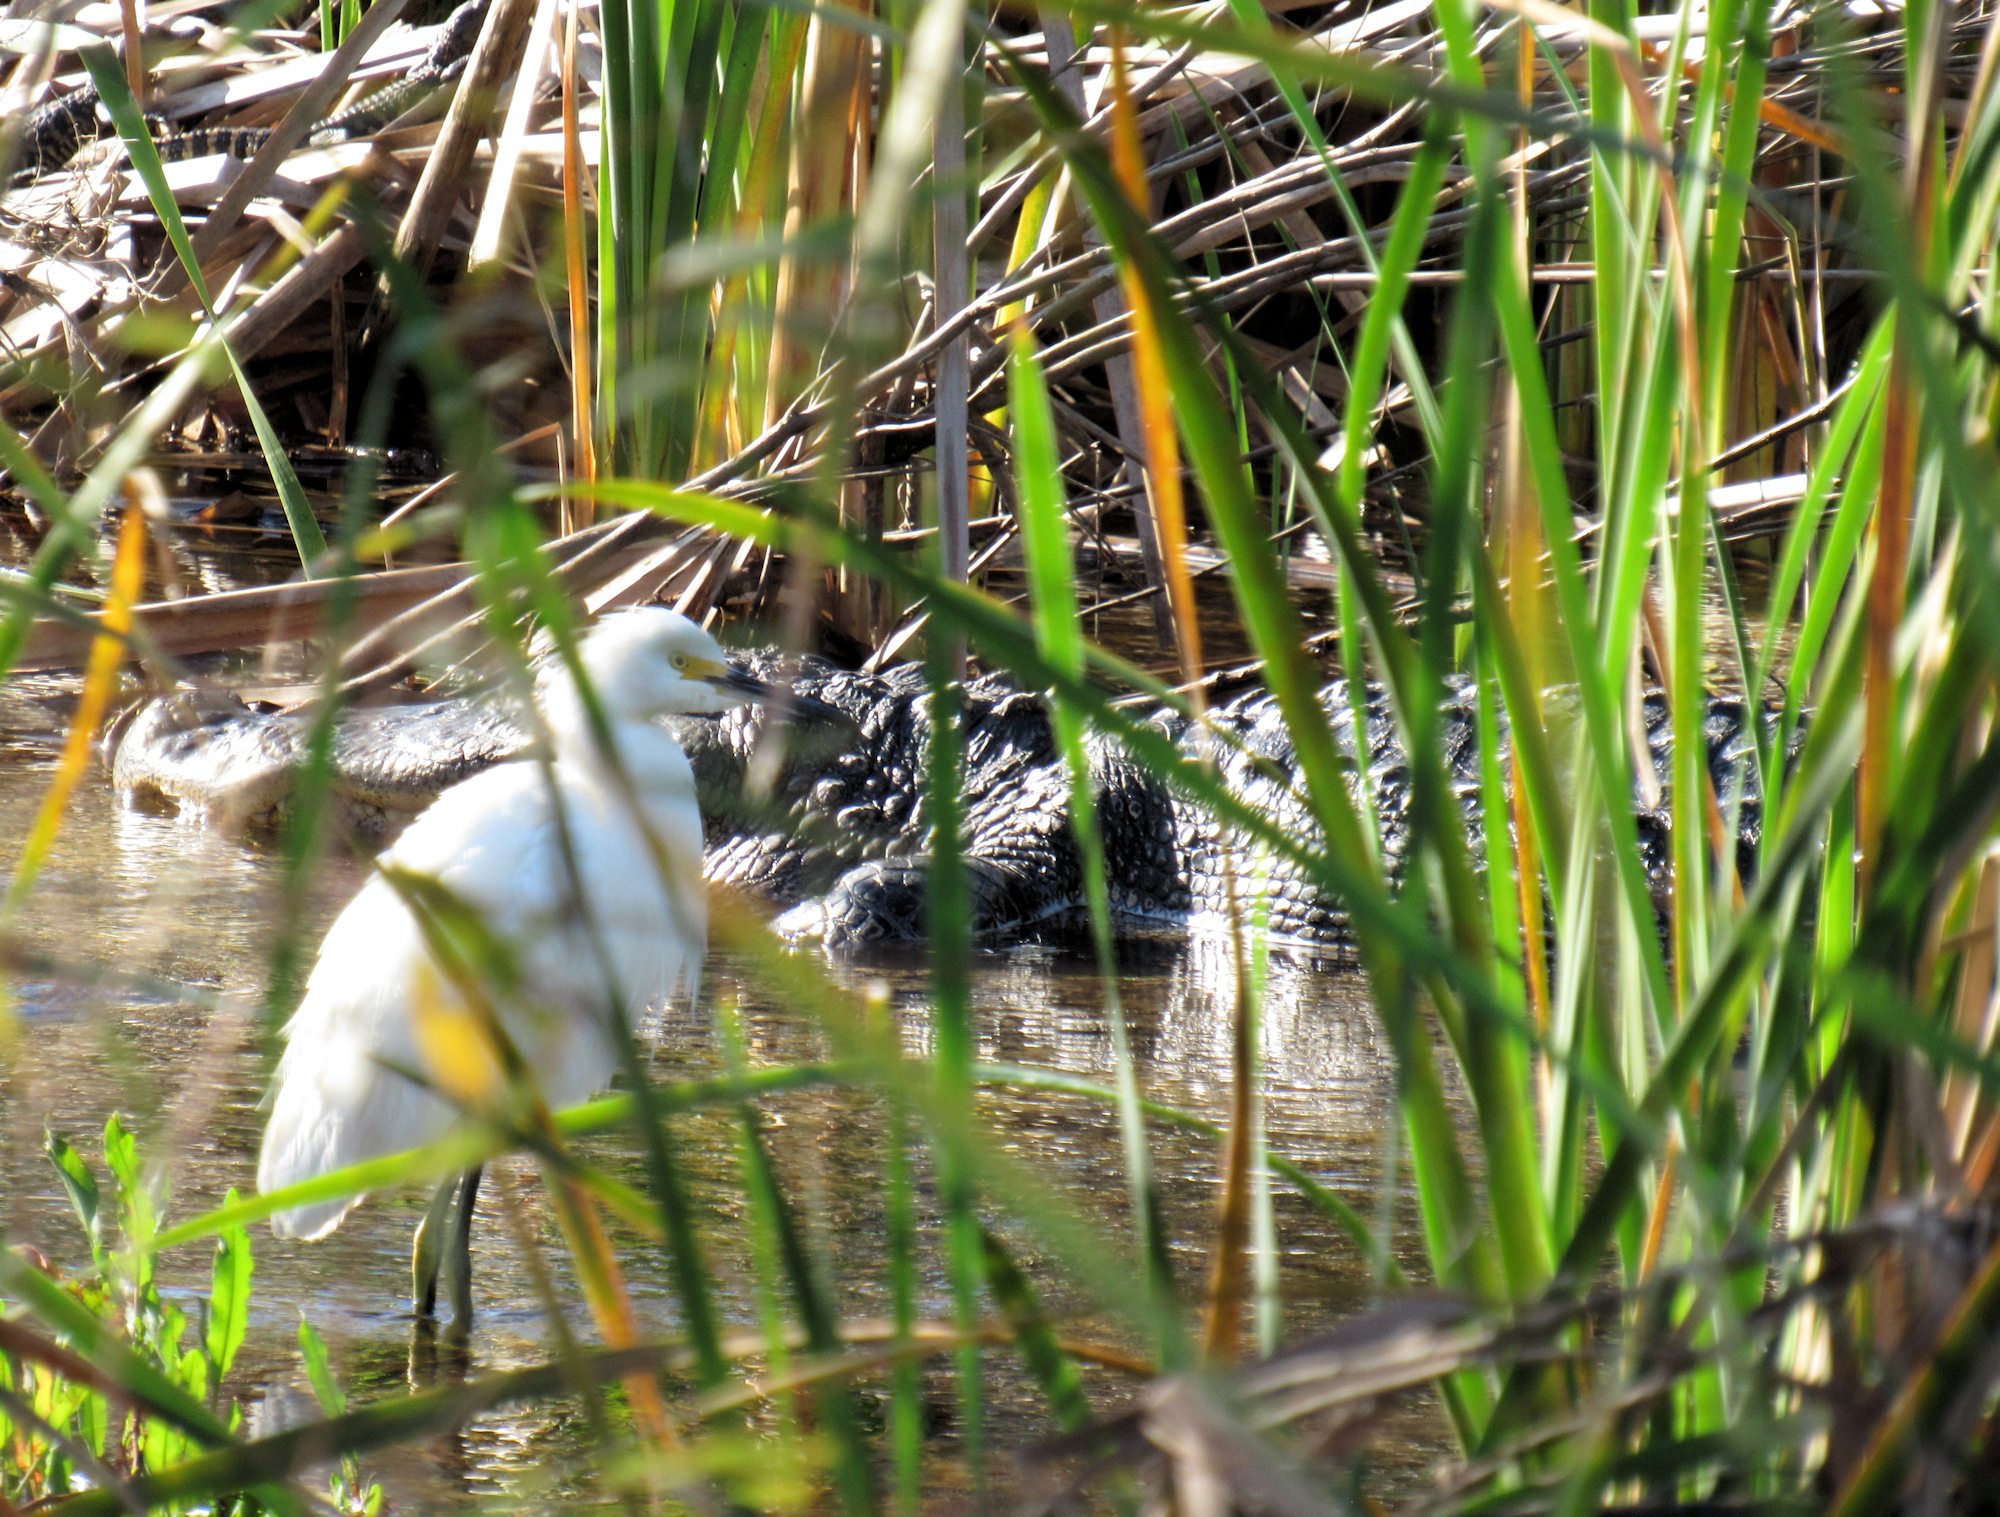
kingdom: Animalia
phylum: Chordata
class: Aves
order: Pelecaniformes
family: Ardeidae
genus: Egretta
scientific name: Egretta thula
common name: Snowy egret
